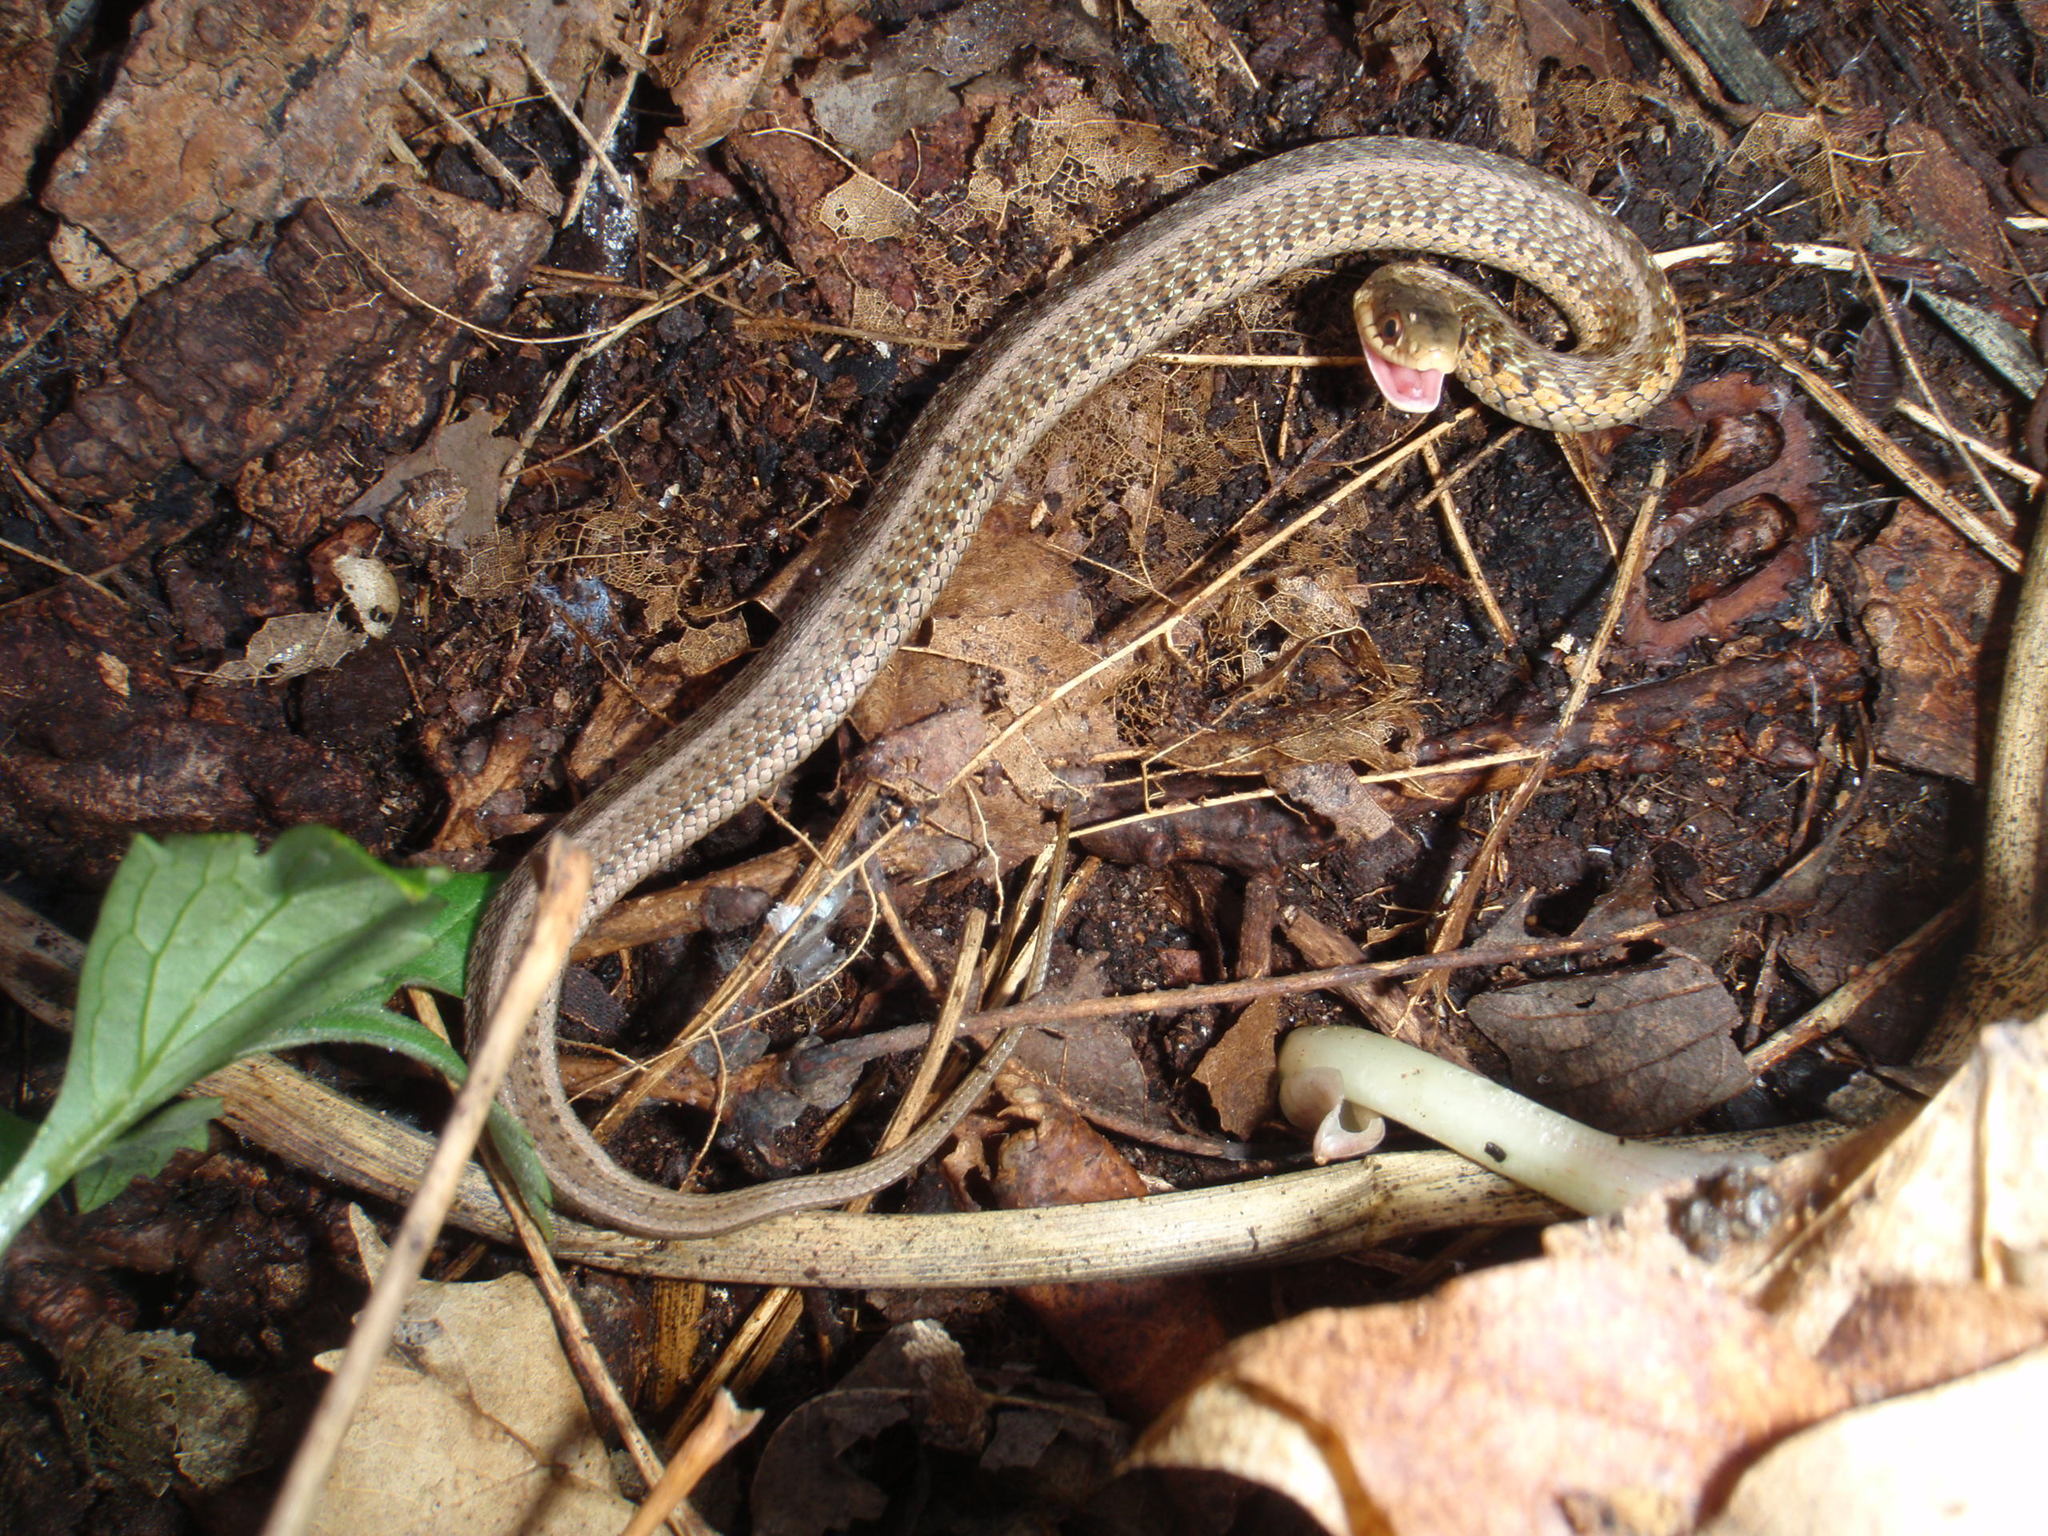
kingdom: Animalia
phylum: Chordata
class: Squamata
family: Colubridae
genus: Thamnophis
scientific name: Thamnophis sirtalis
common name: Common garter snake
